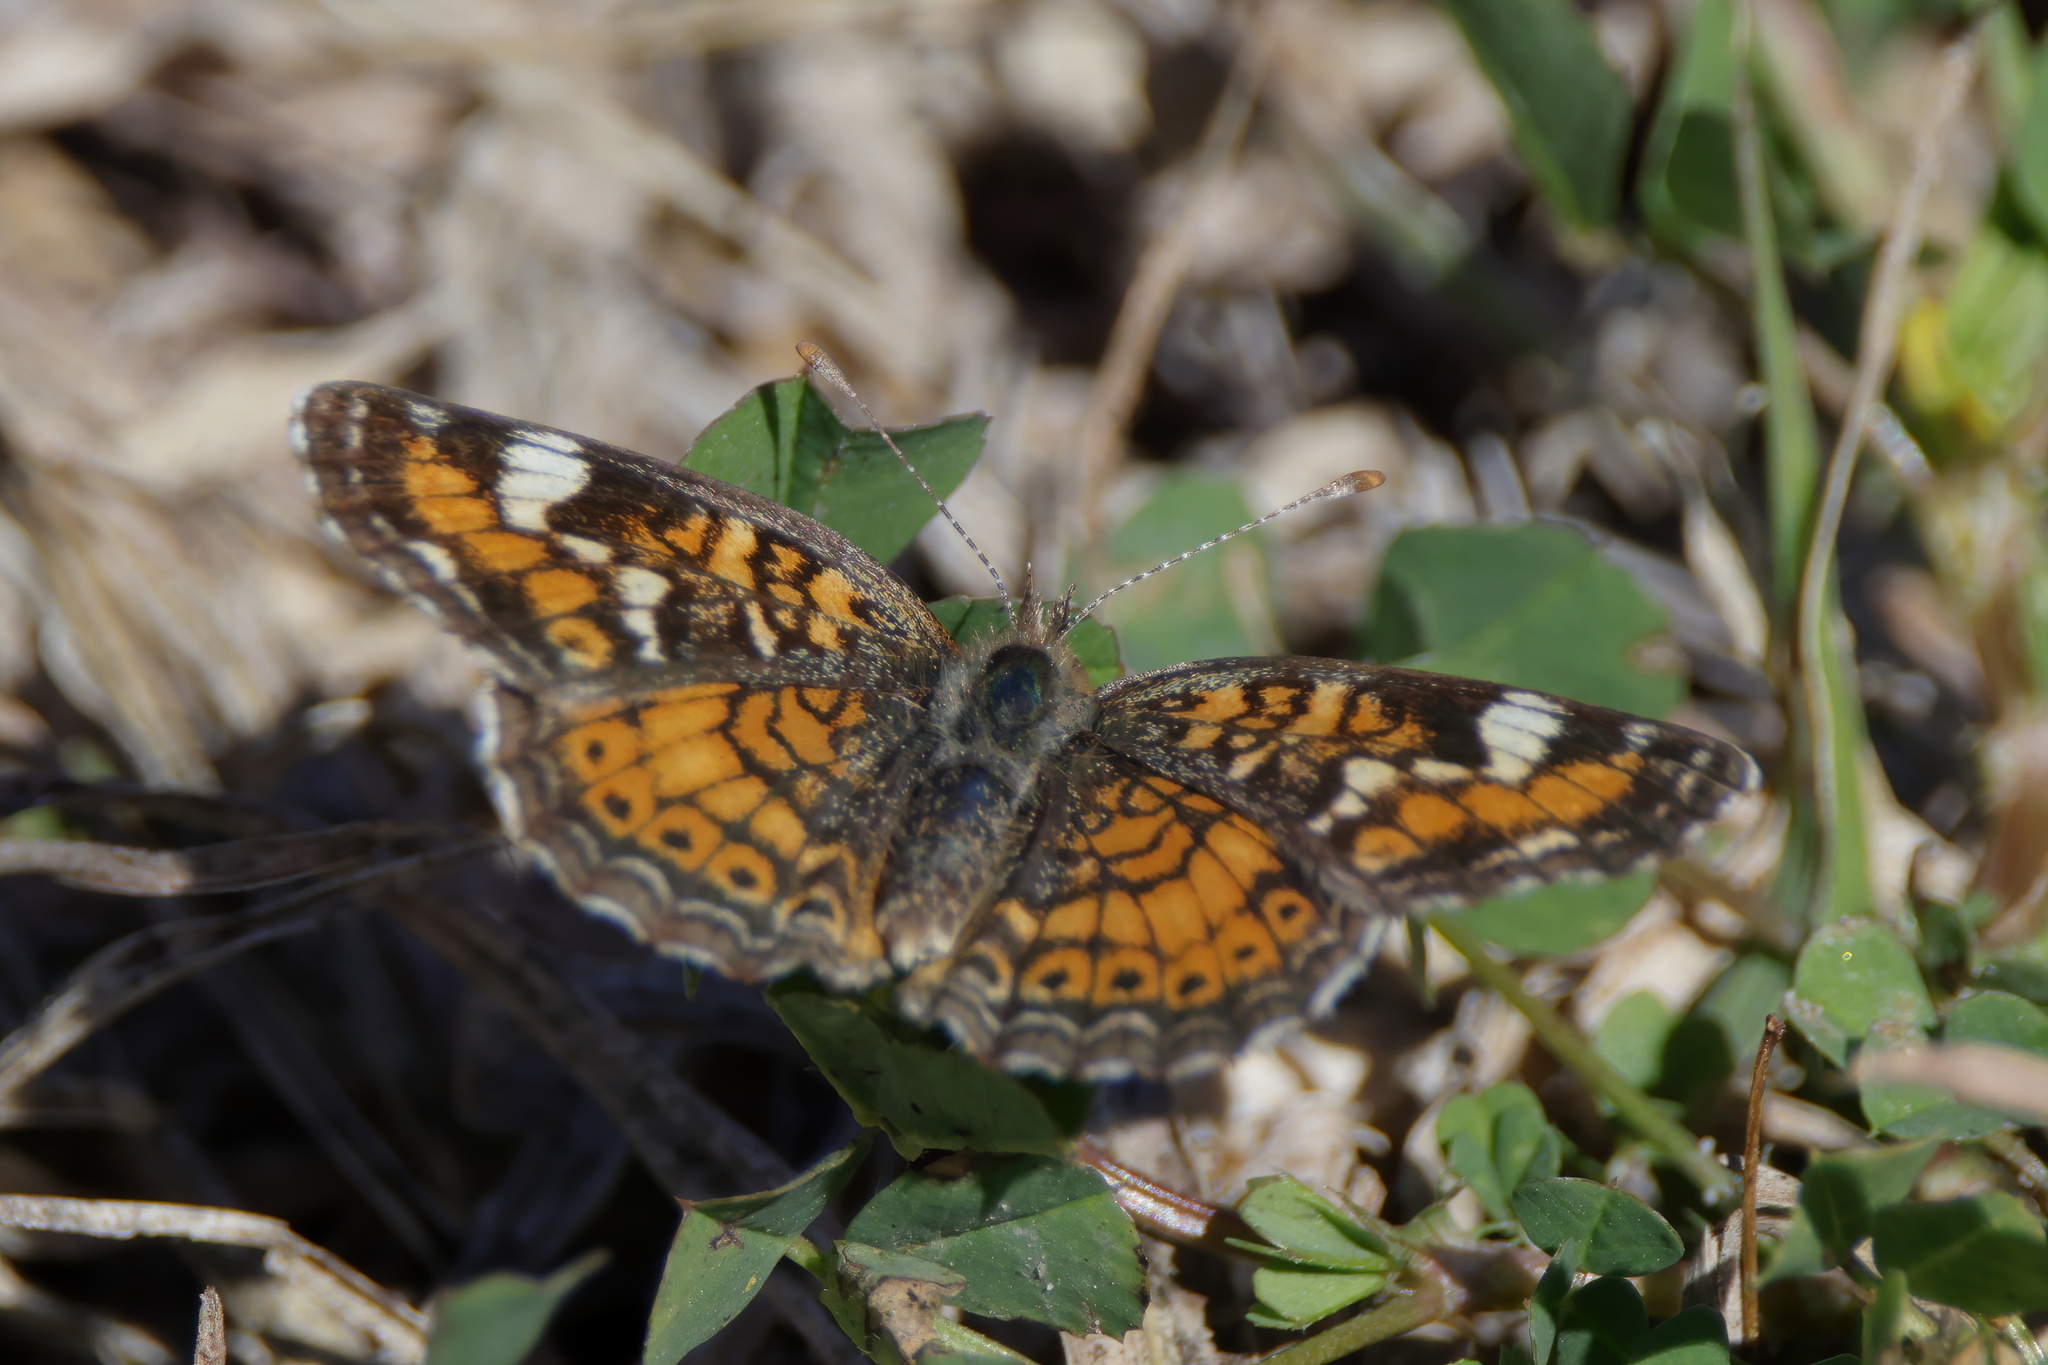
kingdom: Animalia
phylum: Arthropoda
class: Insecta
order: Lepidoptera
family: Nymphalidae
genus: Phyciodes
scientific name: Phyciodes phaon
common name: Phaon crescent
